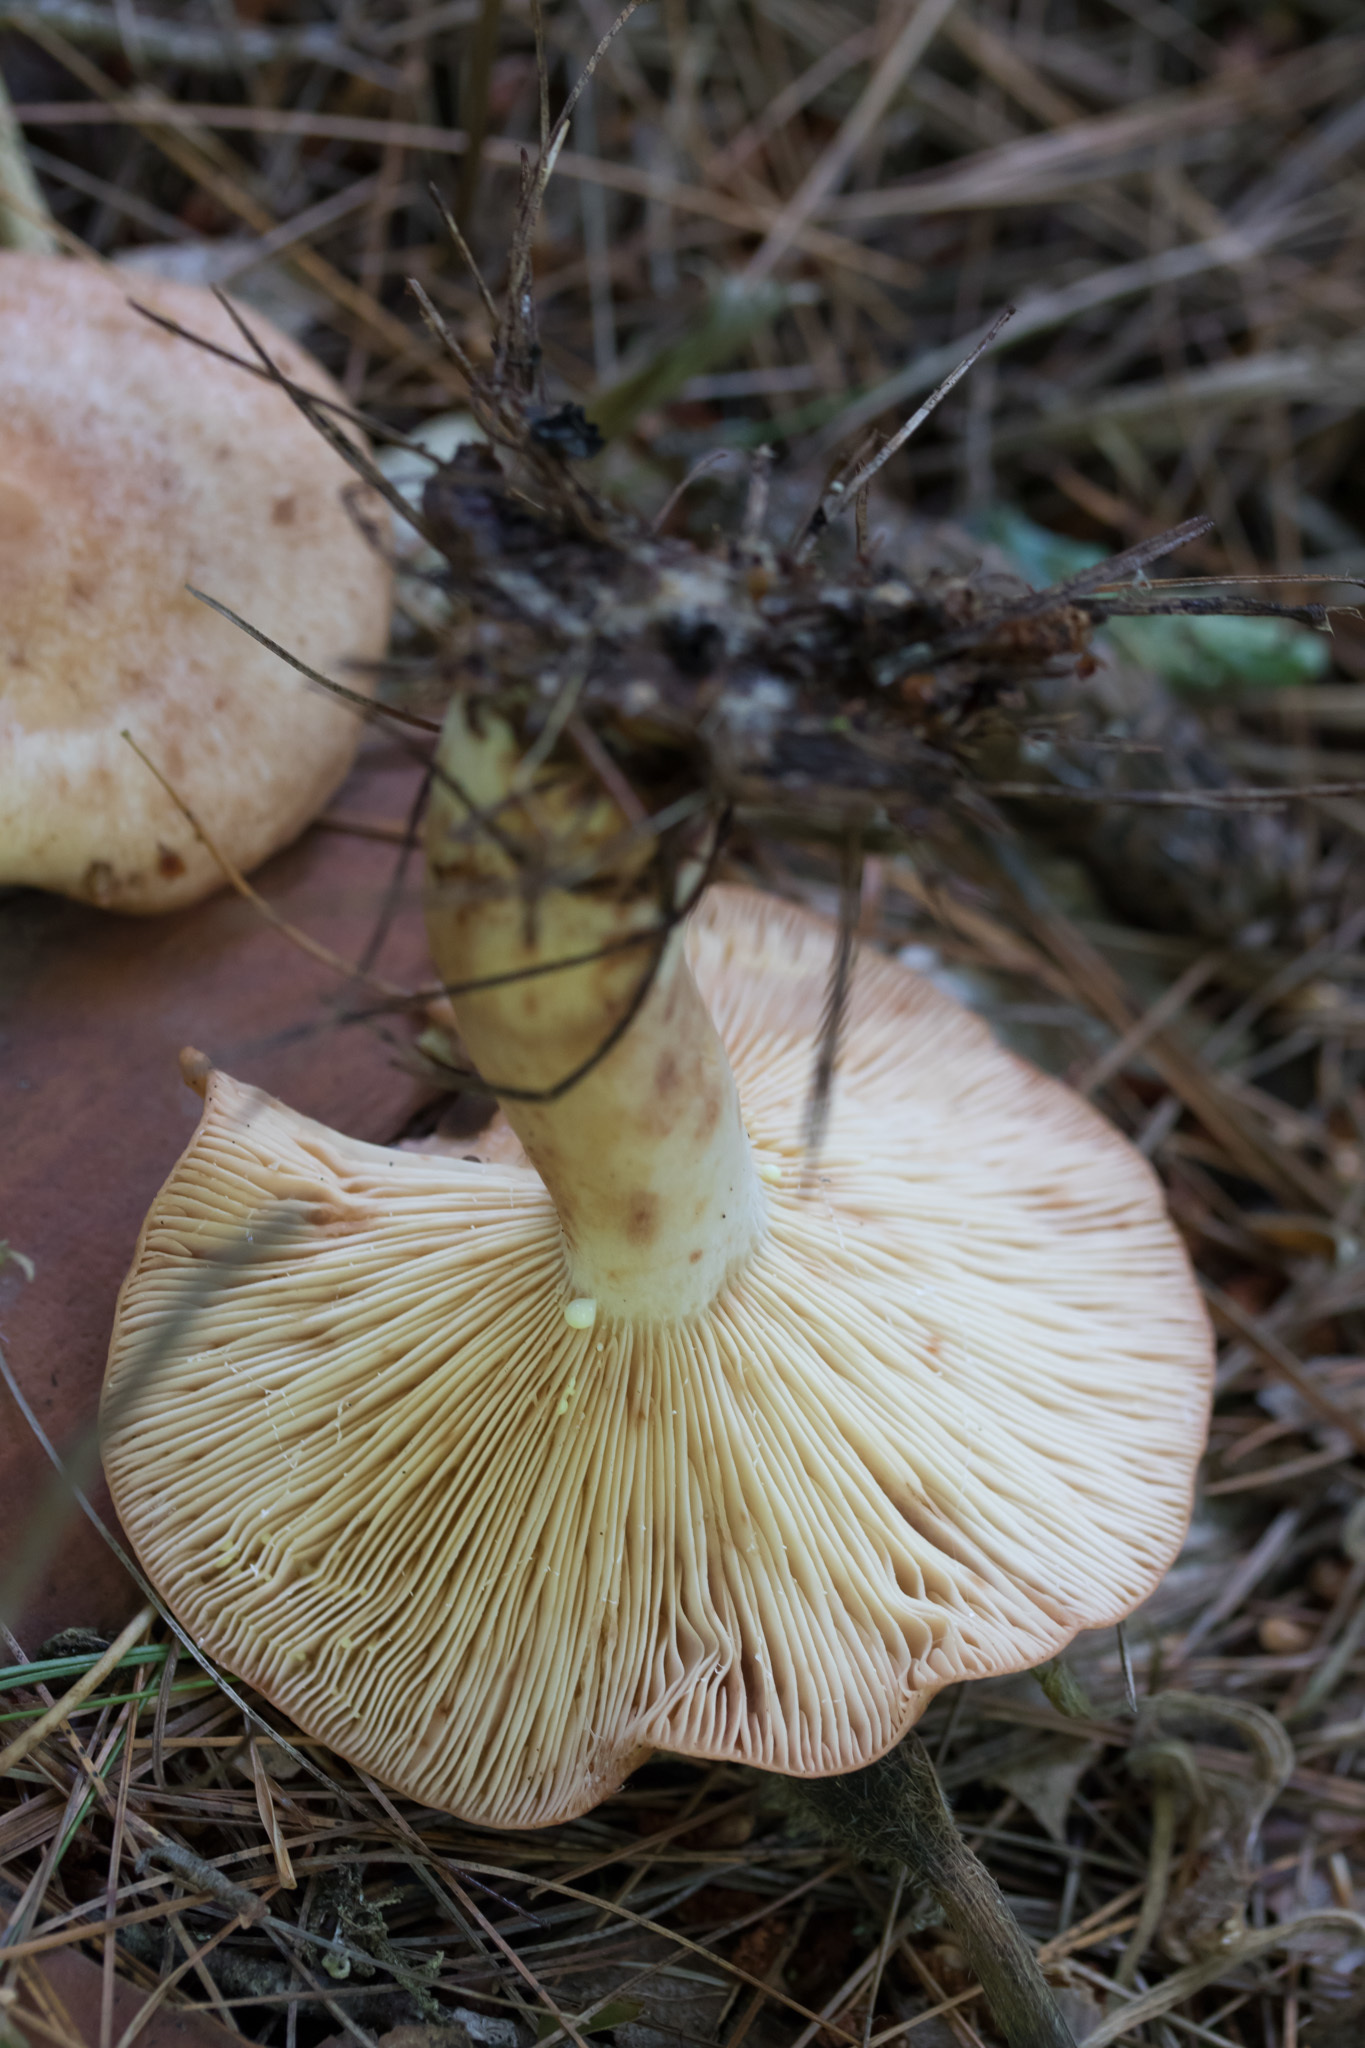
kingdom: Fungi
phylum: Basidiomycota
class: Agaricomycetes
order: Russulales
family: Russulaceae
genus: Lactarius
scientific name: Lactarius vinaceorufescens
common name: Yellow-latex milkcap
